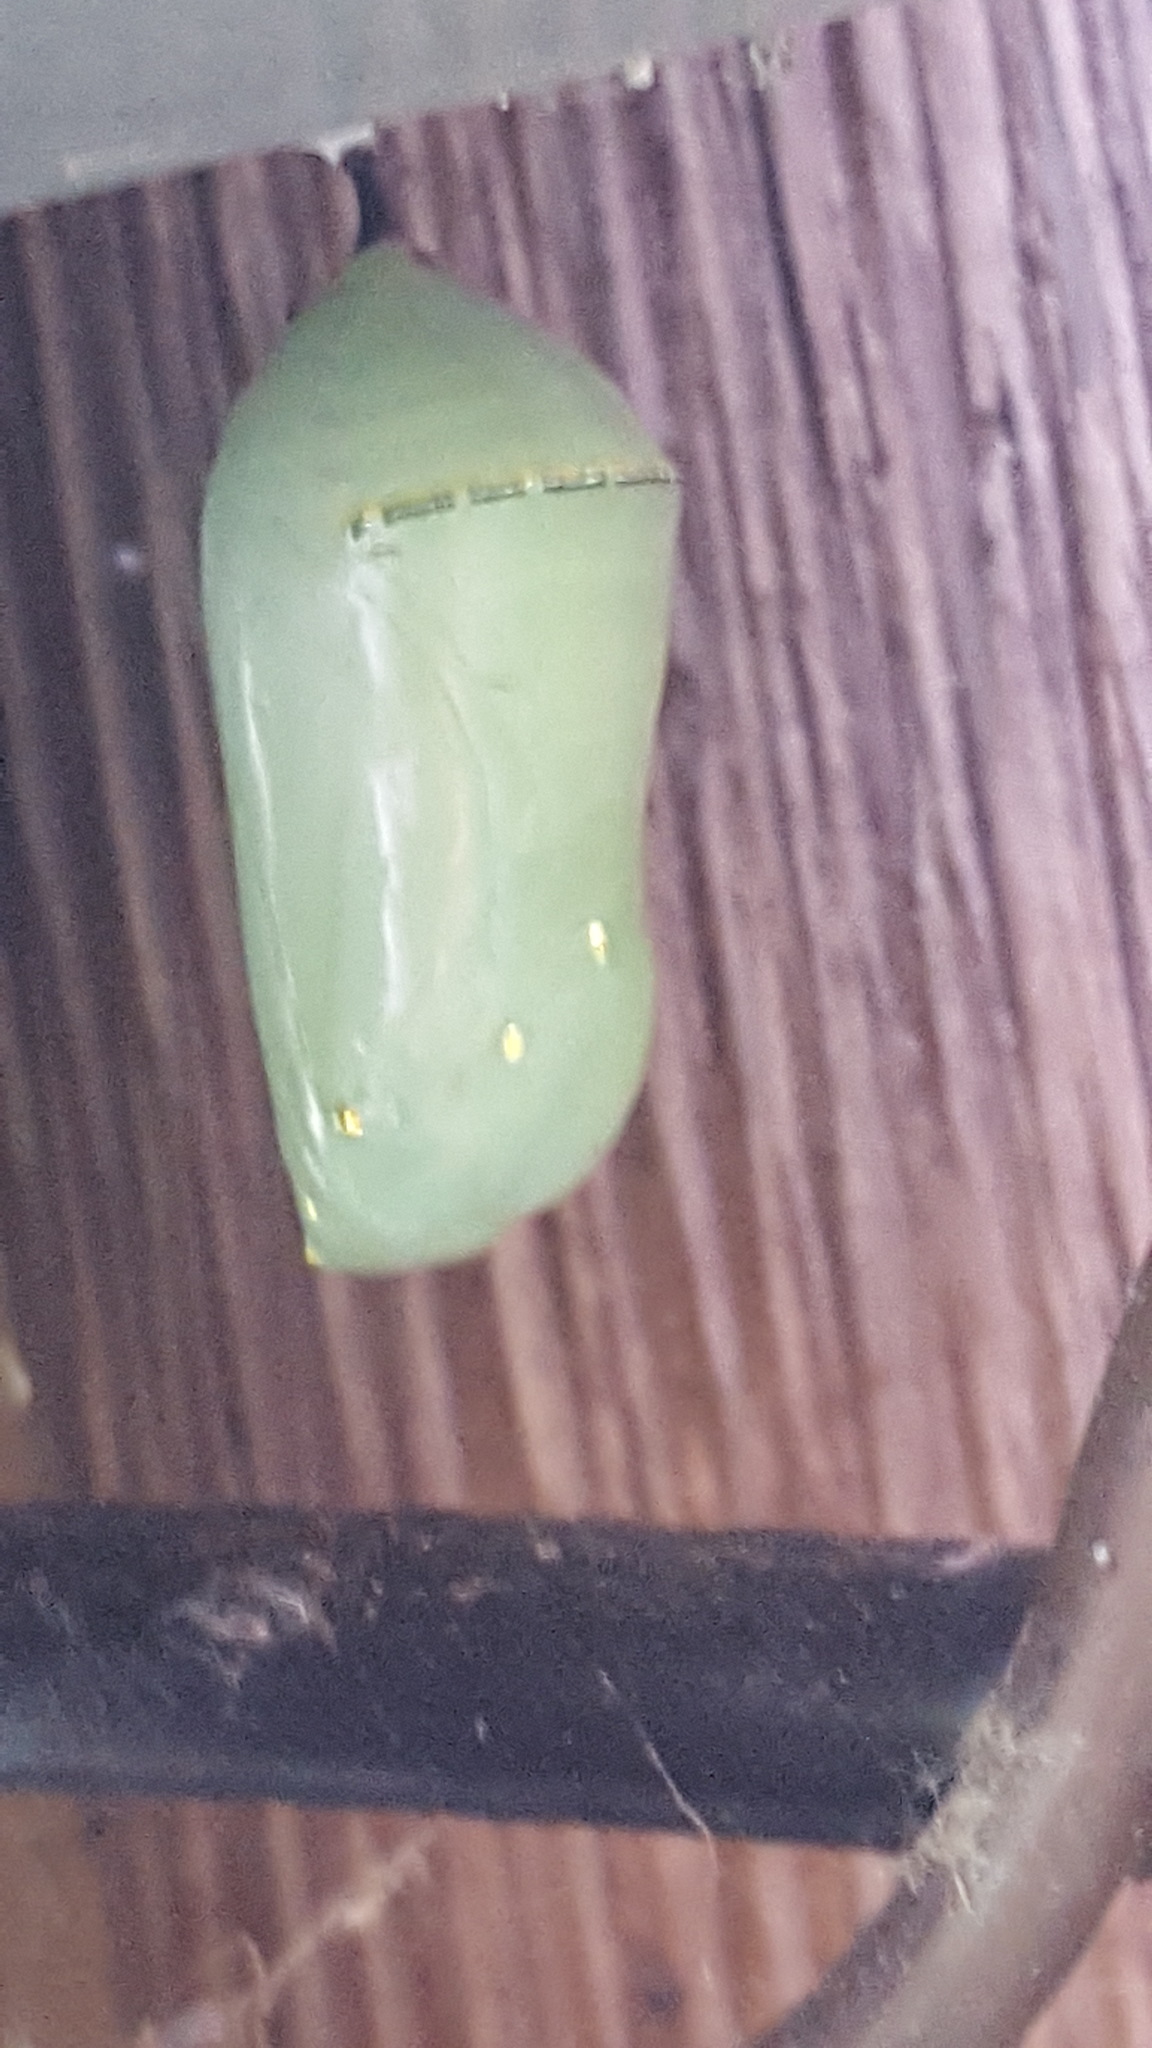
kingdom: Animalia
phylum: Arthropoda
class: Insecta
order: Lepidoptera
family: Nymphalidae
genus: Danaus
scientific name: Danaus plexippus
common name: Monarch
